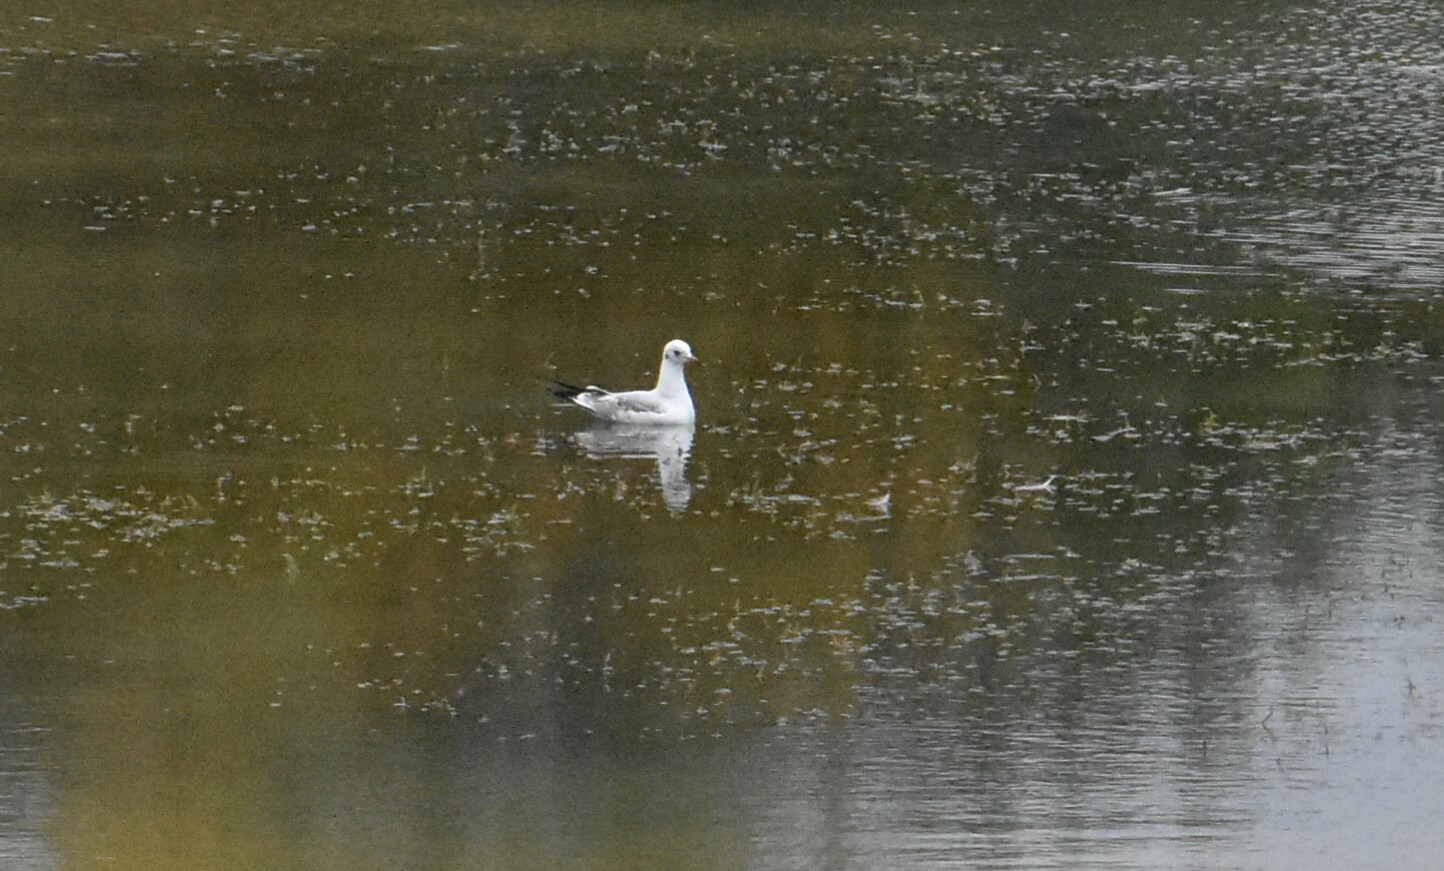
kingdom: Animalia
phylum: Chordata
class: Aves
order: Charadriiformes
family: Laridae
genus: Chroicocephalus
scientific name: Chroicocephalus ridibundus
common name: Black-headed gull
